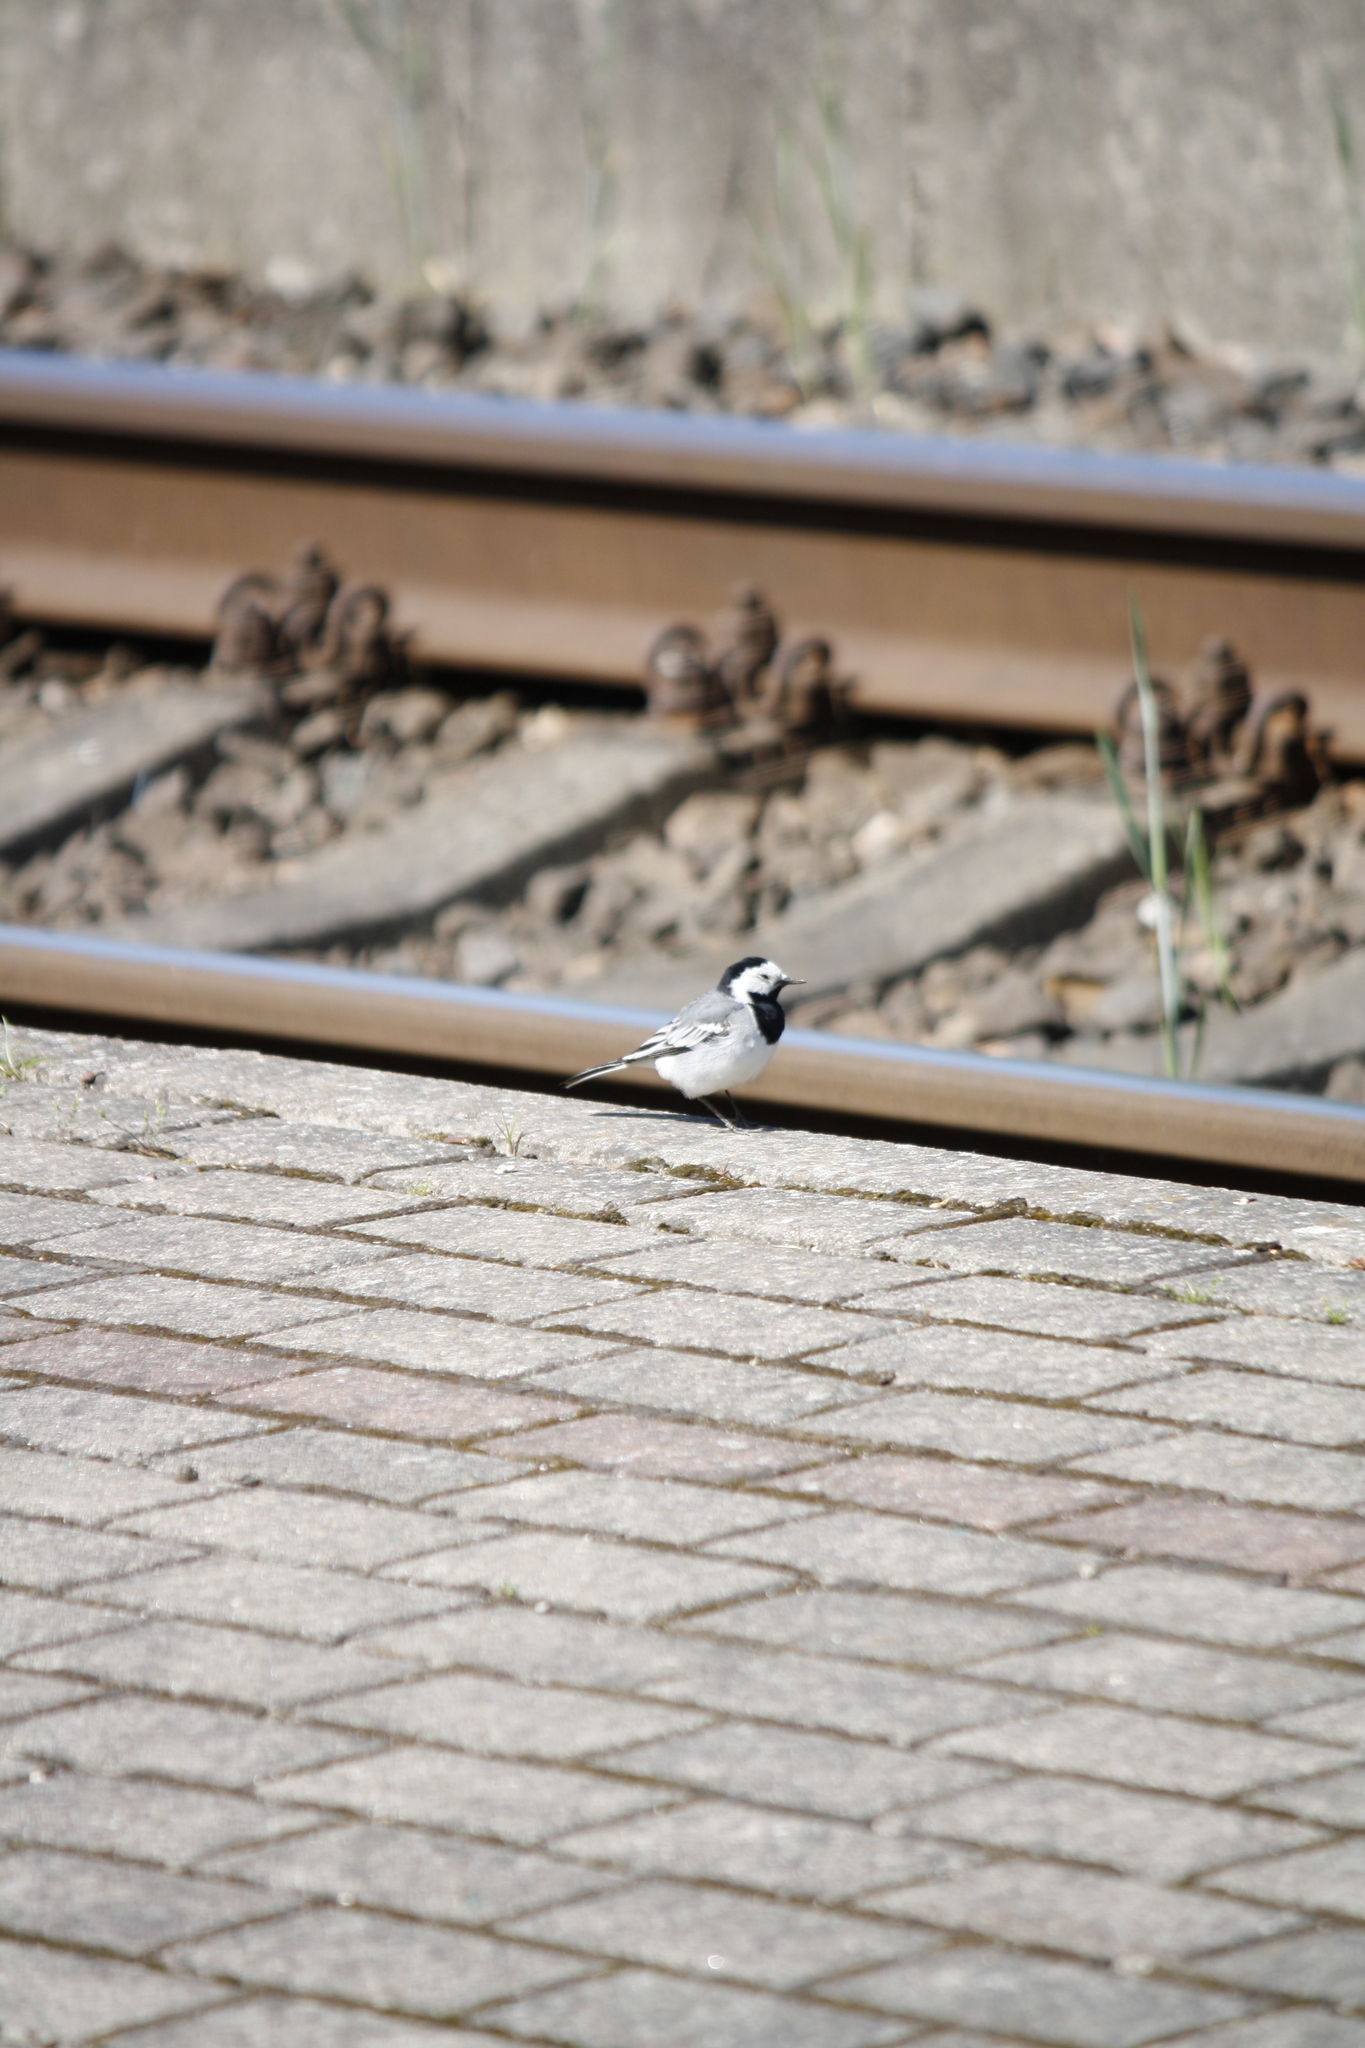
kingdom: Animalia
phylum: Chordata
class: Aves
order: Passeriformes
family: Motacillidae
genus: Motacilla
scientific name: Motacilla alba
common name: White wagtail
